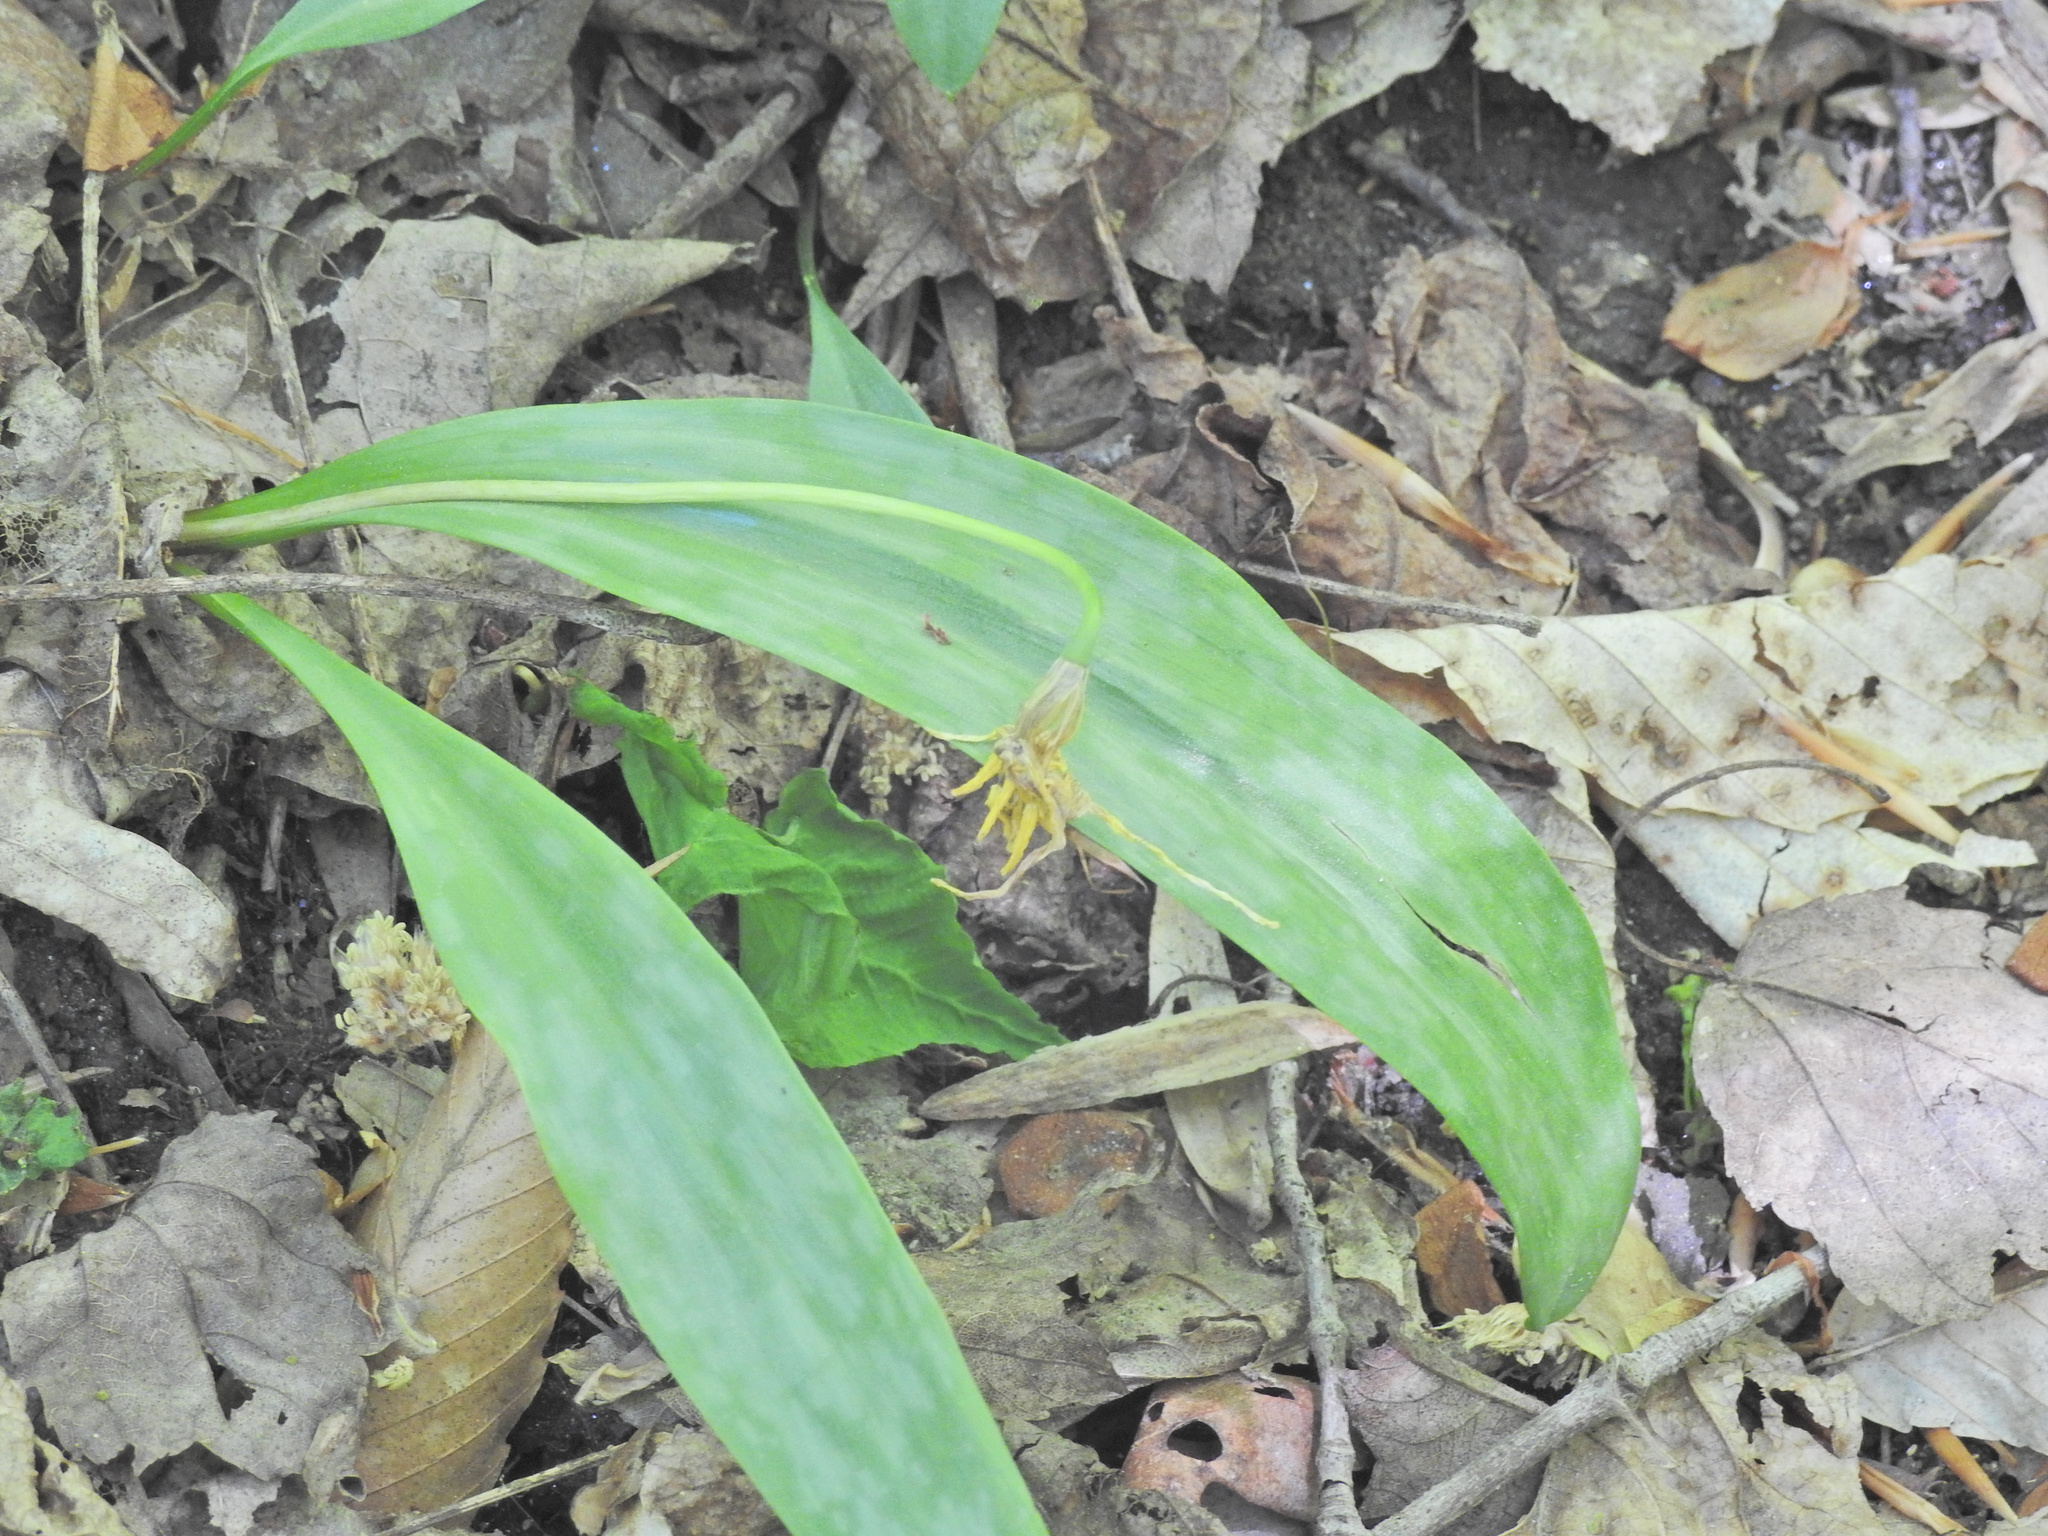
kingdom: Plantae
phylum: Tracheophyta
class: Liliopsida
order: Liliales
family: Liliaceae
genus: Erythronium
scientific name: Erythronium americanum
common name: Yellow adder's-tongue
